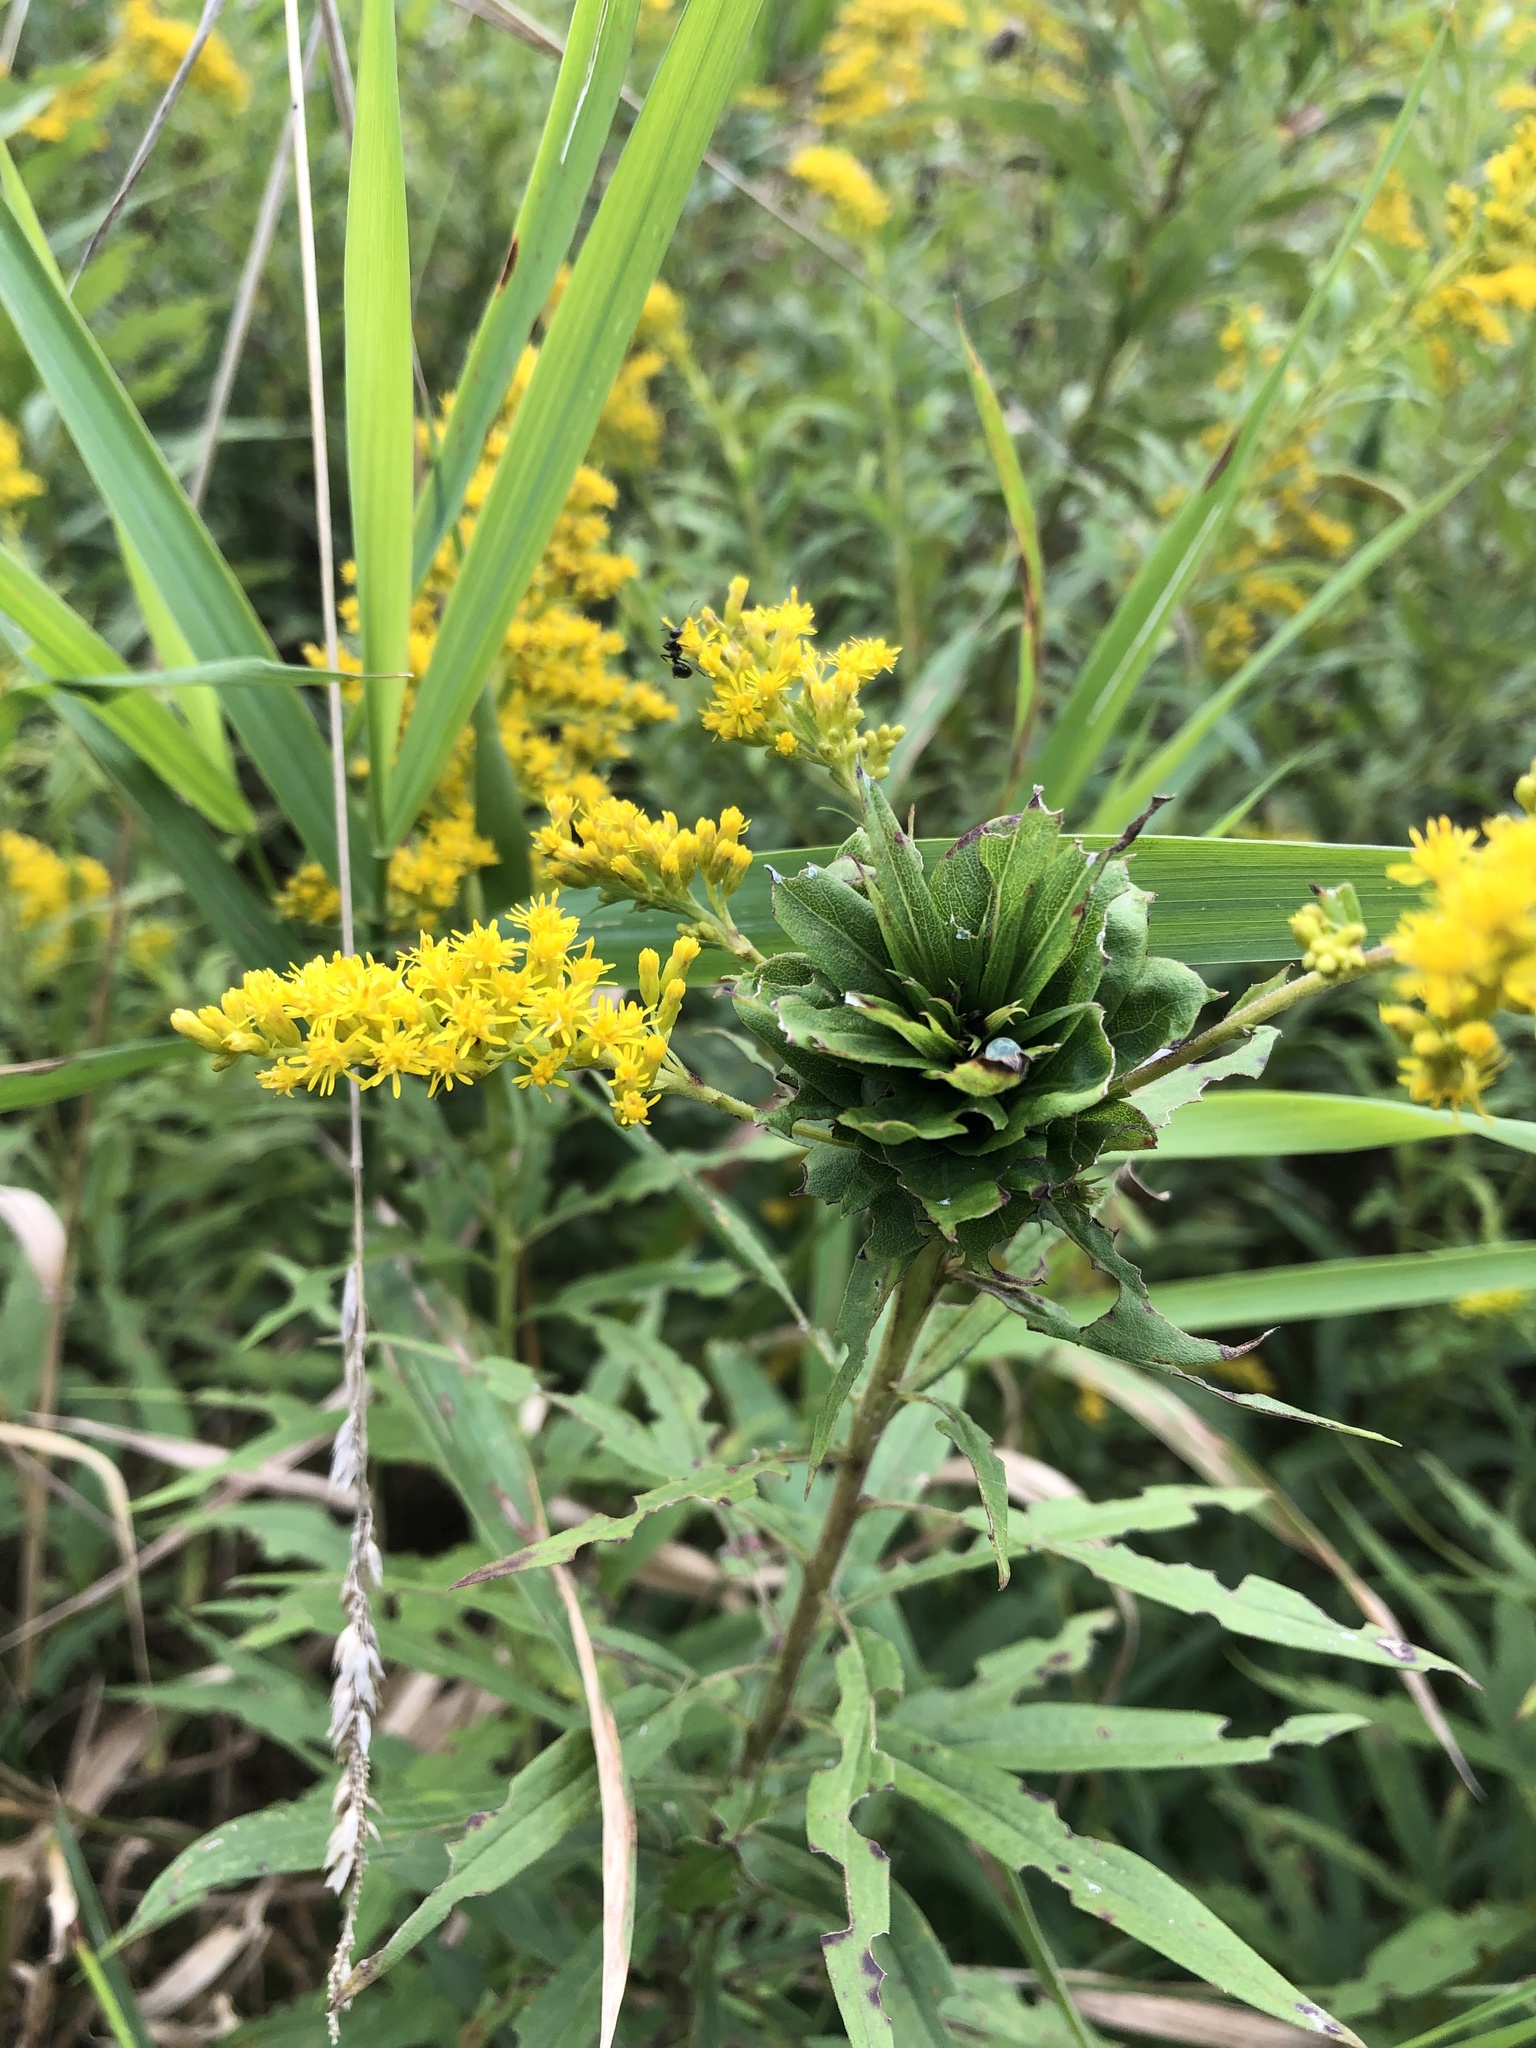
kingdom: Animalia
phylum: Arthropoda
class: Insecta
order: Diptera
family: Cecidomyiidae
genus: Rhopalomyia
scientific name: Rhopalomyia solidaginis
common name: Goldenrod bunch gall midge
